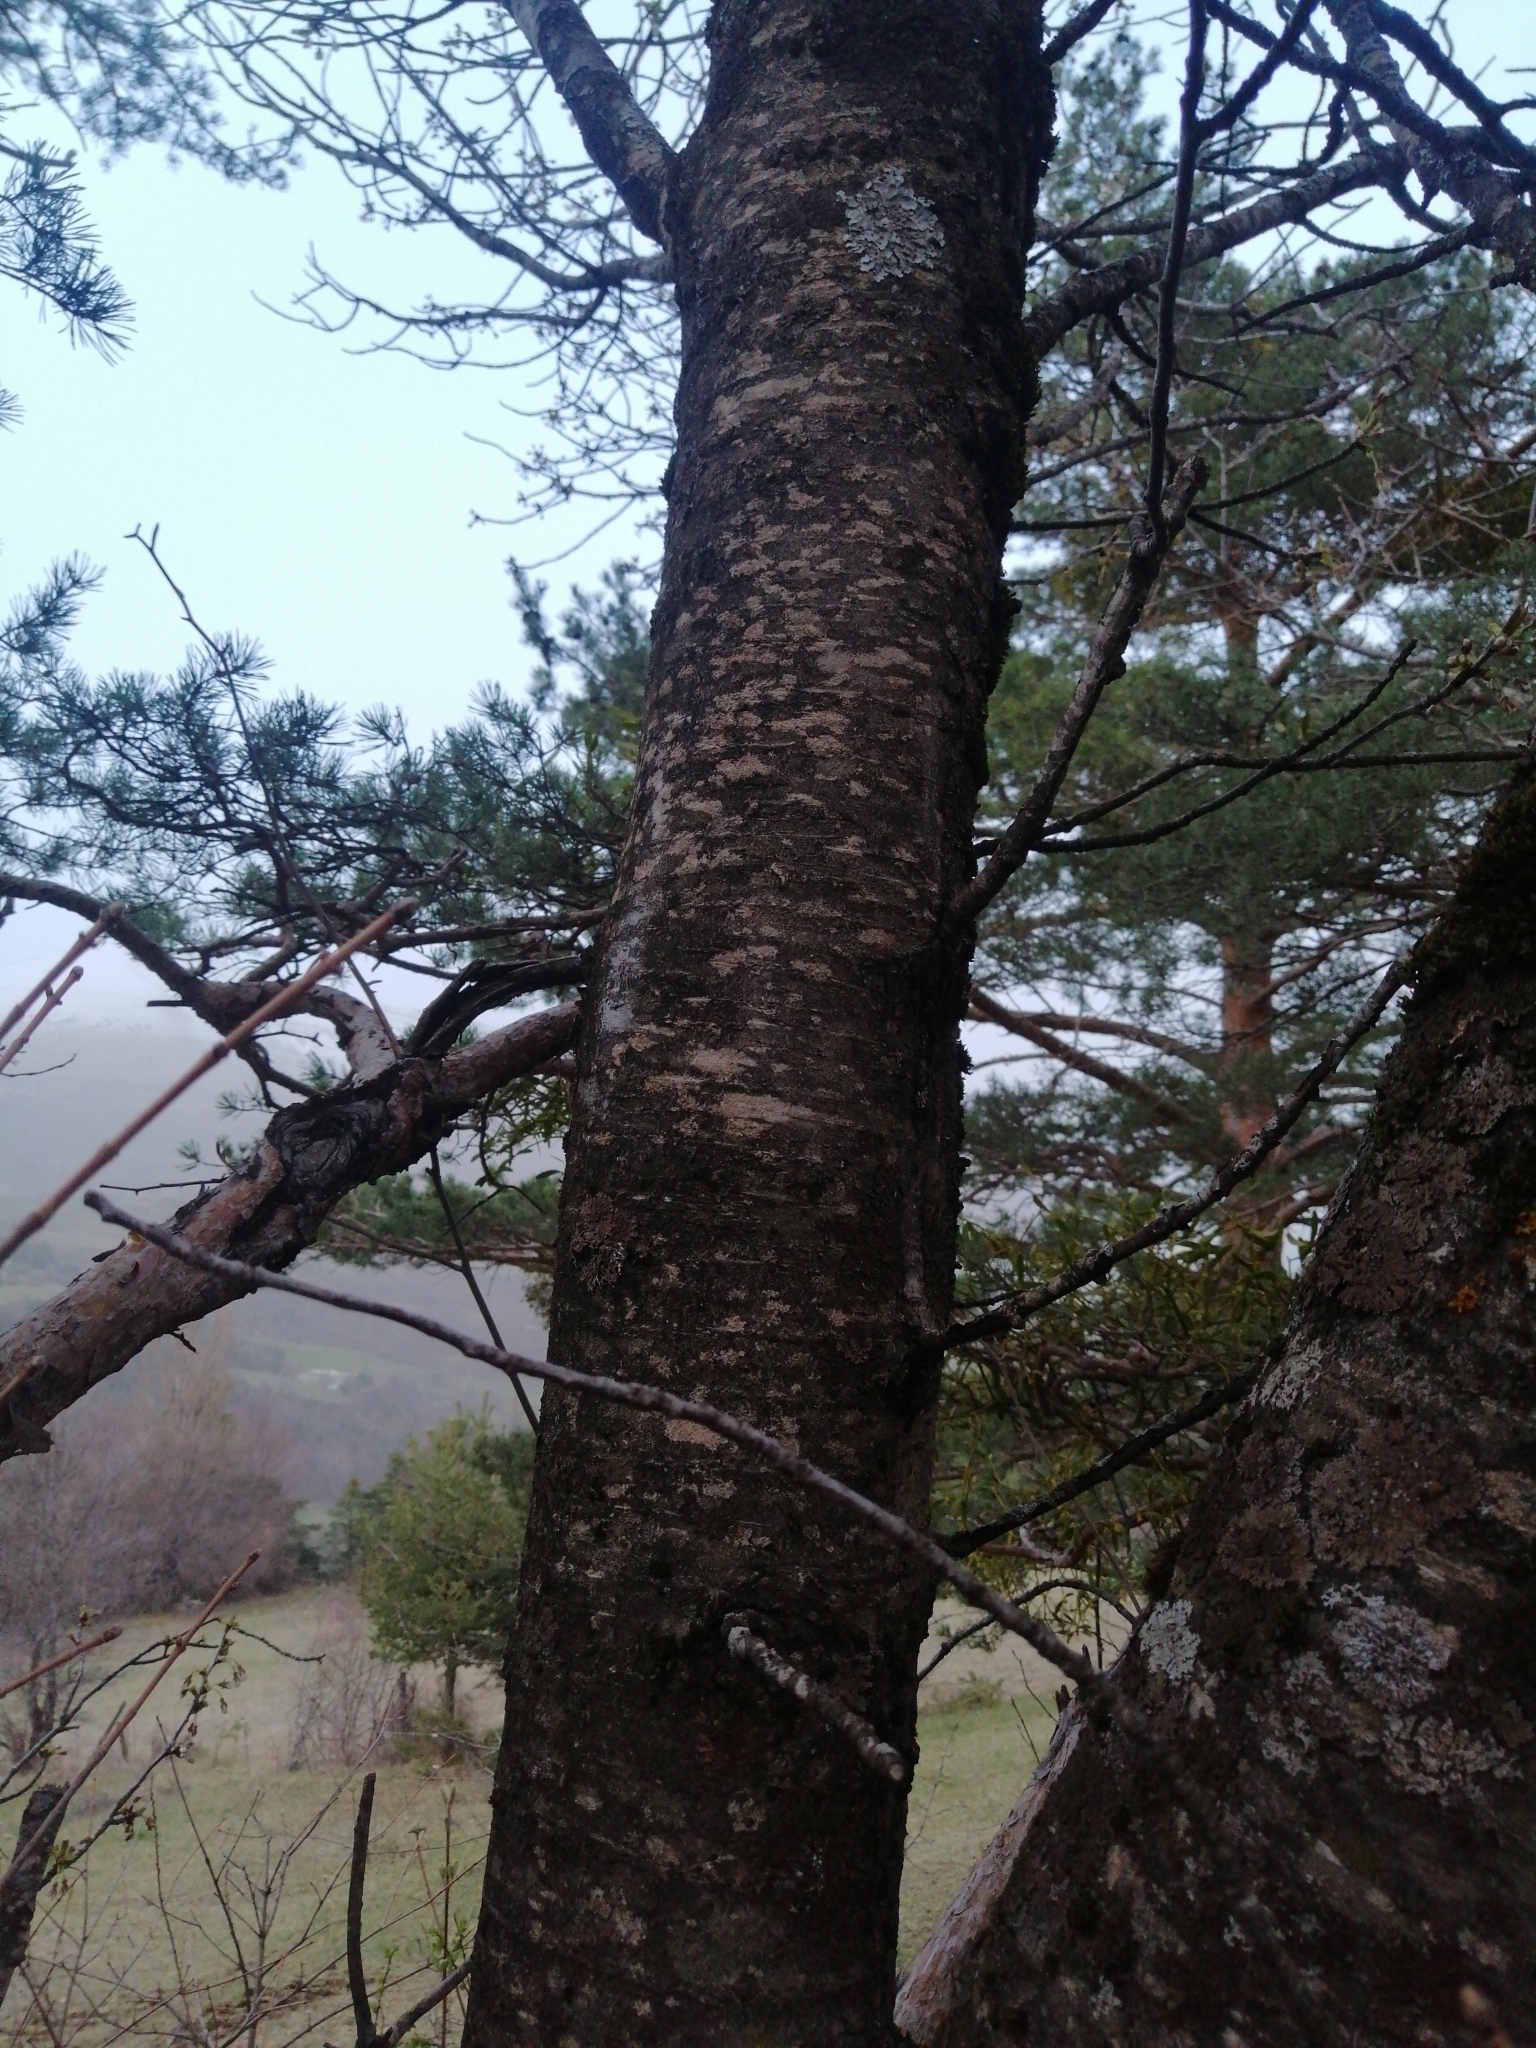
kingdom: Plantae
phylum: Tracheophyta
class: Magnoliopsida
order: Rosales
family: Rosaceae
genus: Prunus
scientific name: Prunus avium
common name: Sweet cherry
